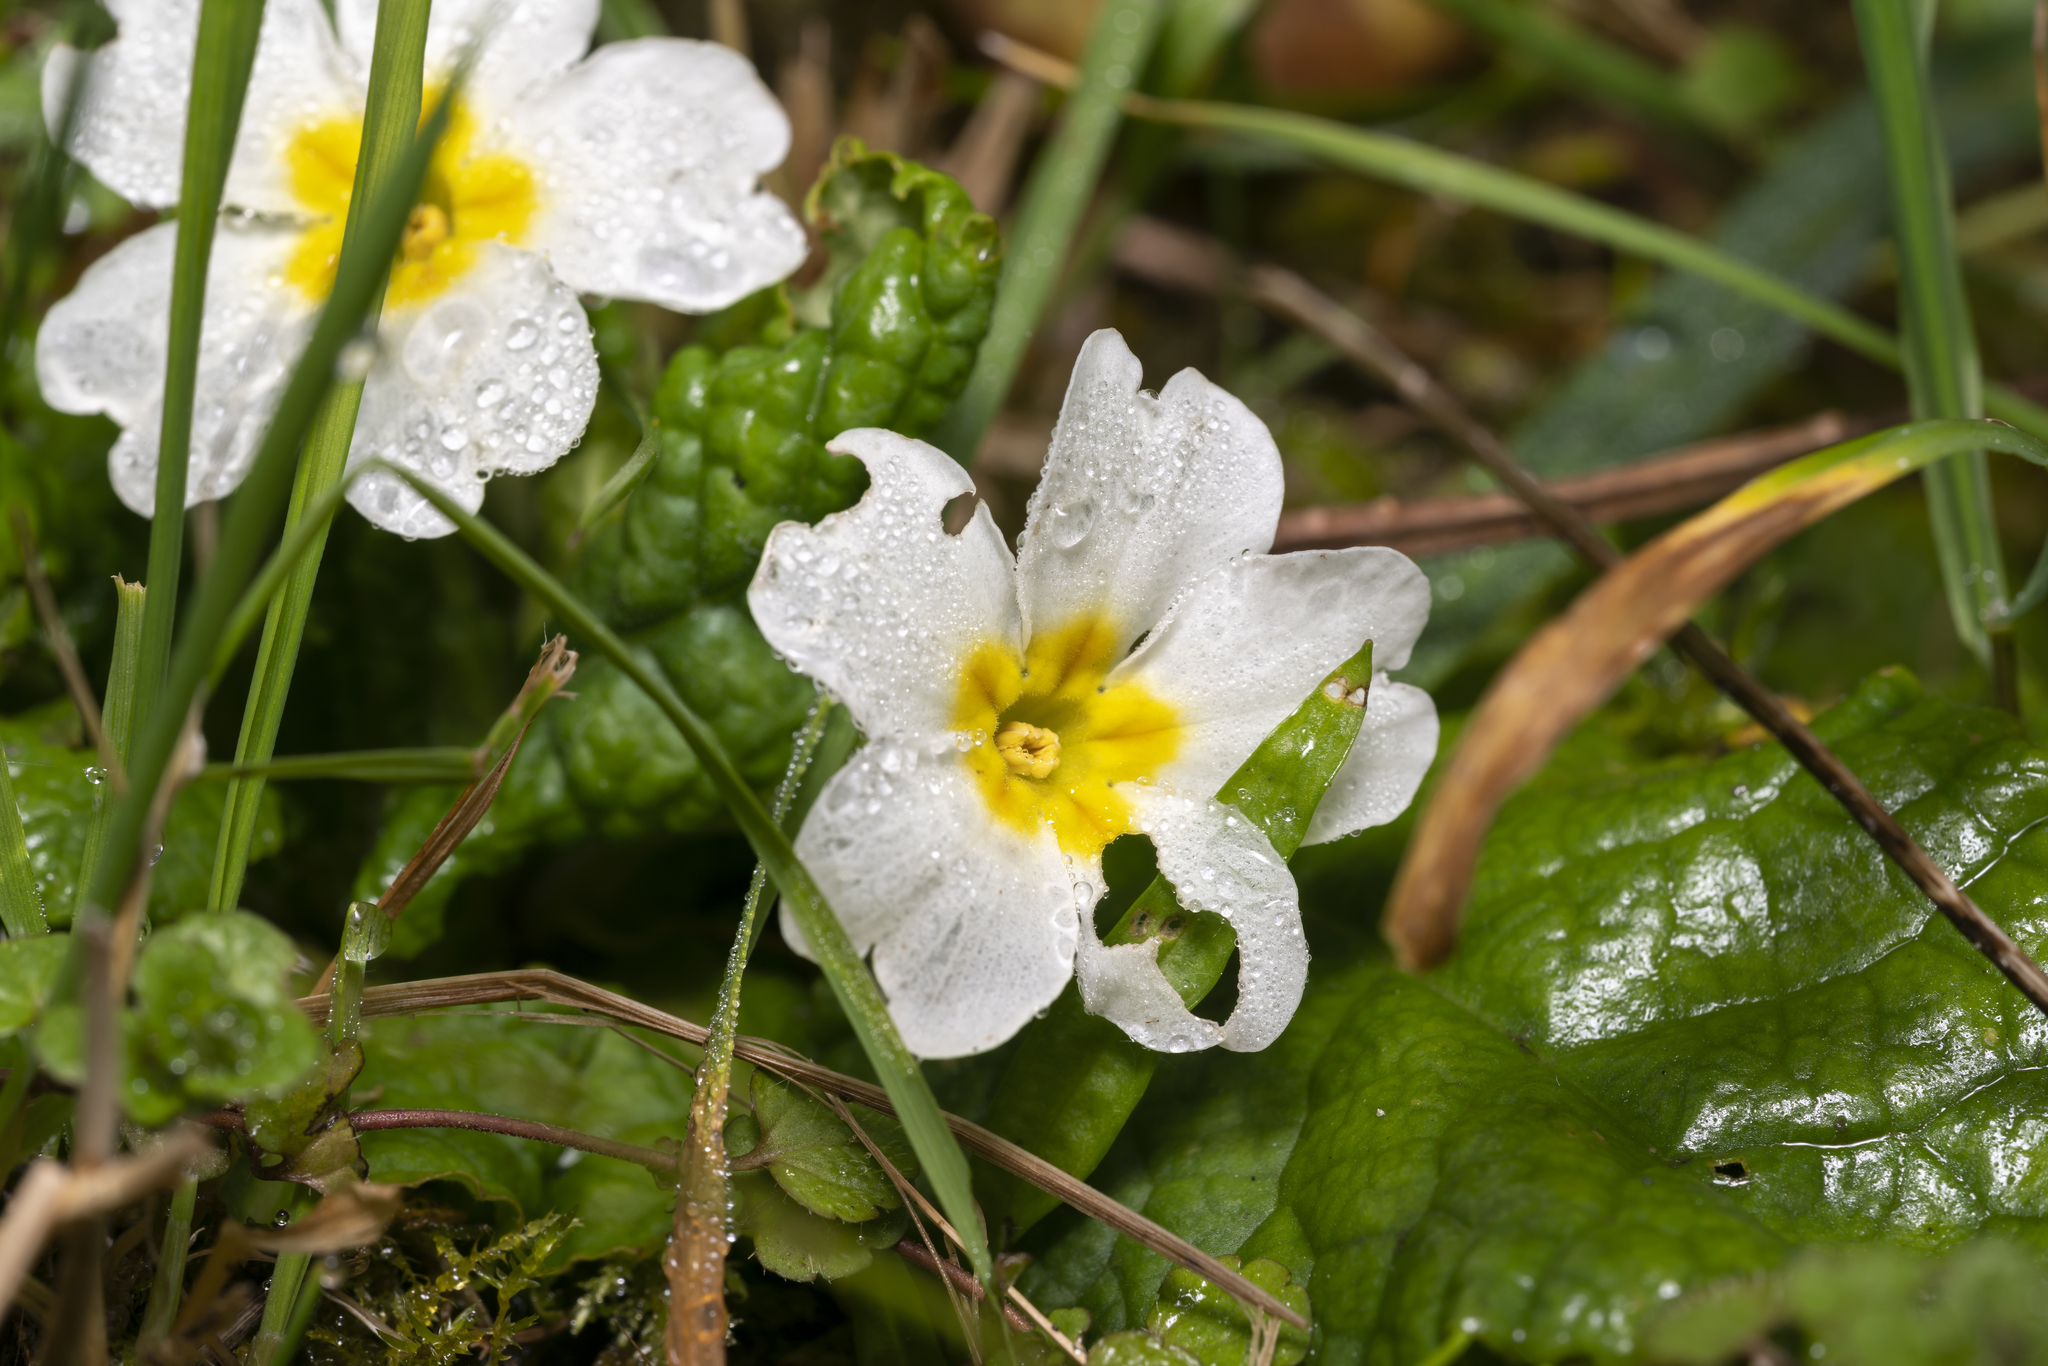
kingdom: Plantae
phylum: Tracheophyta
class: Magnoliopsida
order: Ericales
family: Primulaceae
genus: Primula
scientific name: Primula vulgaris
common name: Primrose
